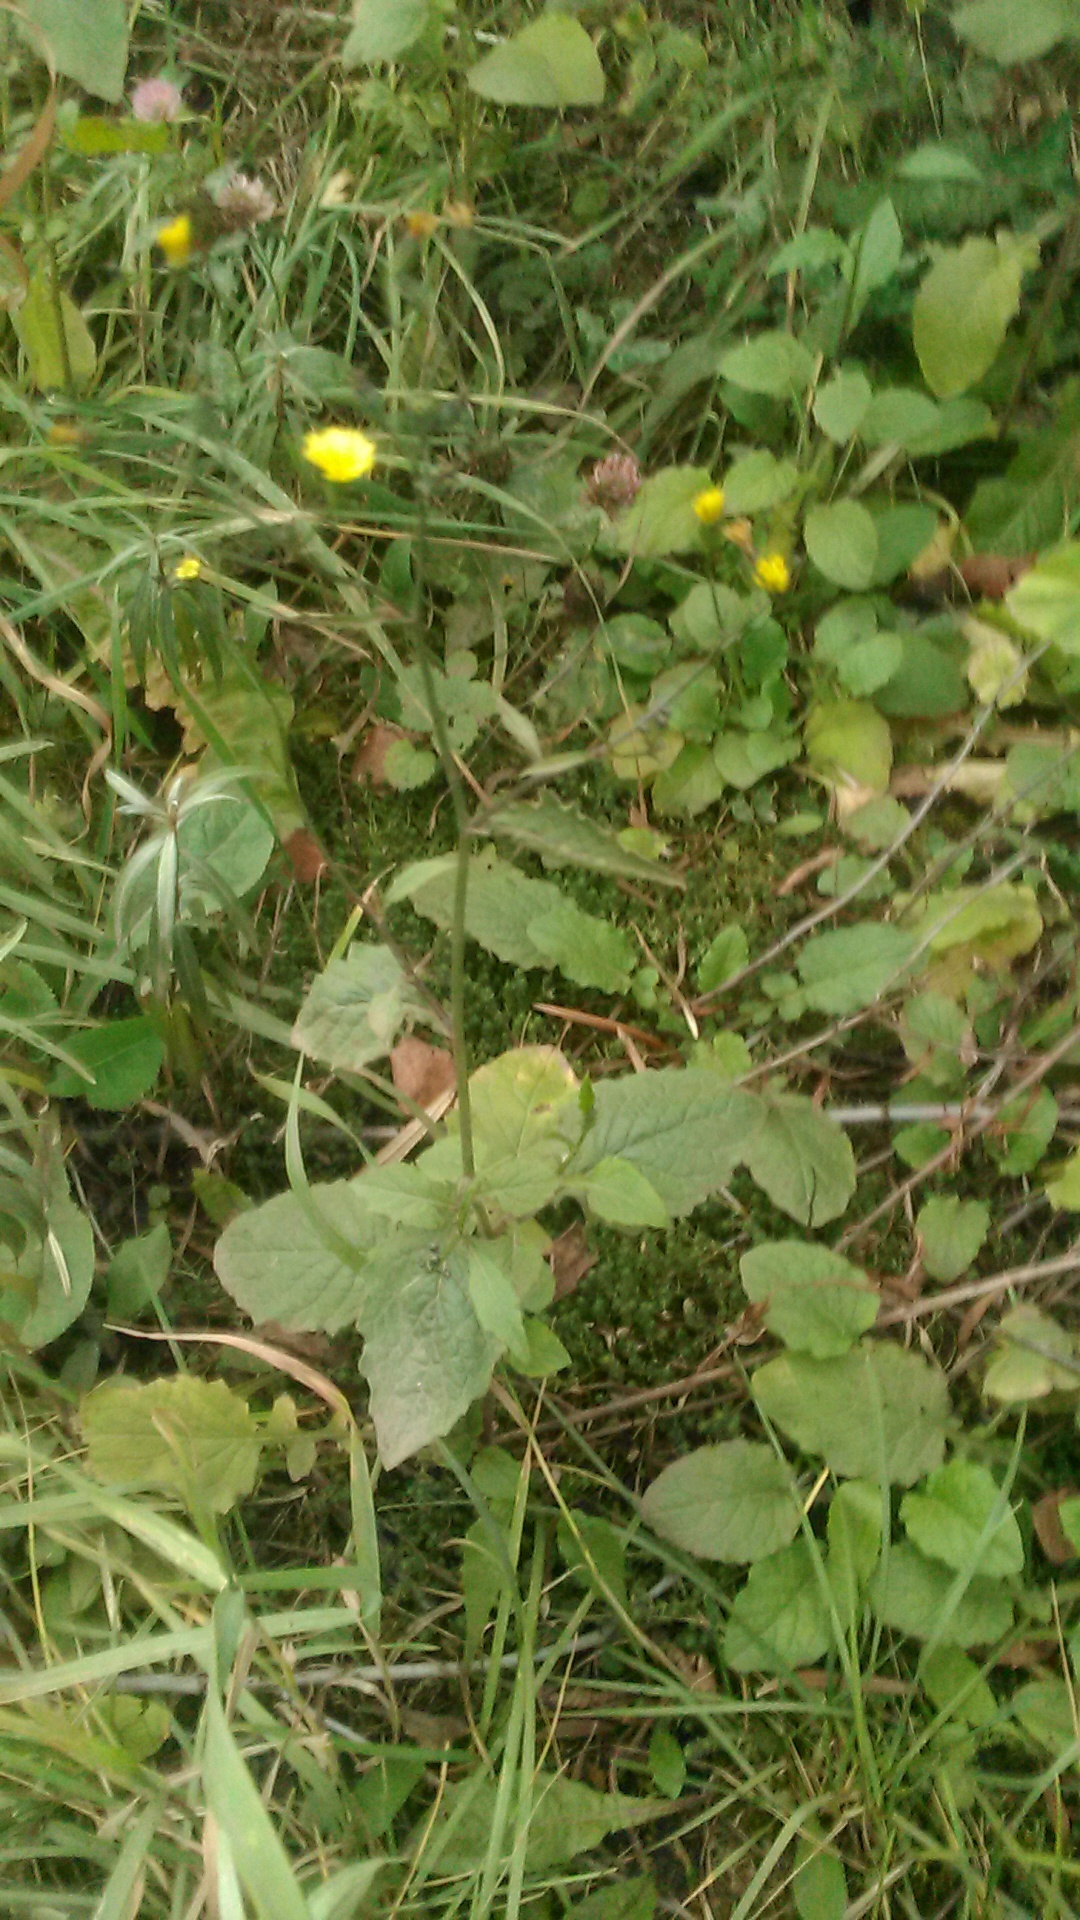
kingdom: Plantae
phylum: Tracheophyta
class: Magnoliopsida
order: Asterales
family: Asteraceae
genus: Lapsana
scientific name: Lapsana communis
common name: Nipplewort
